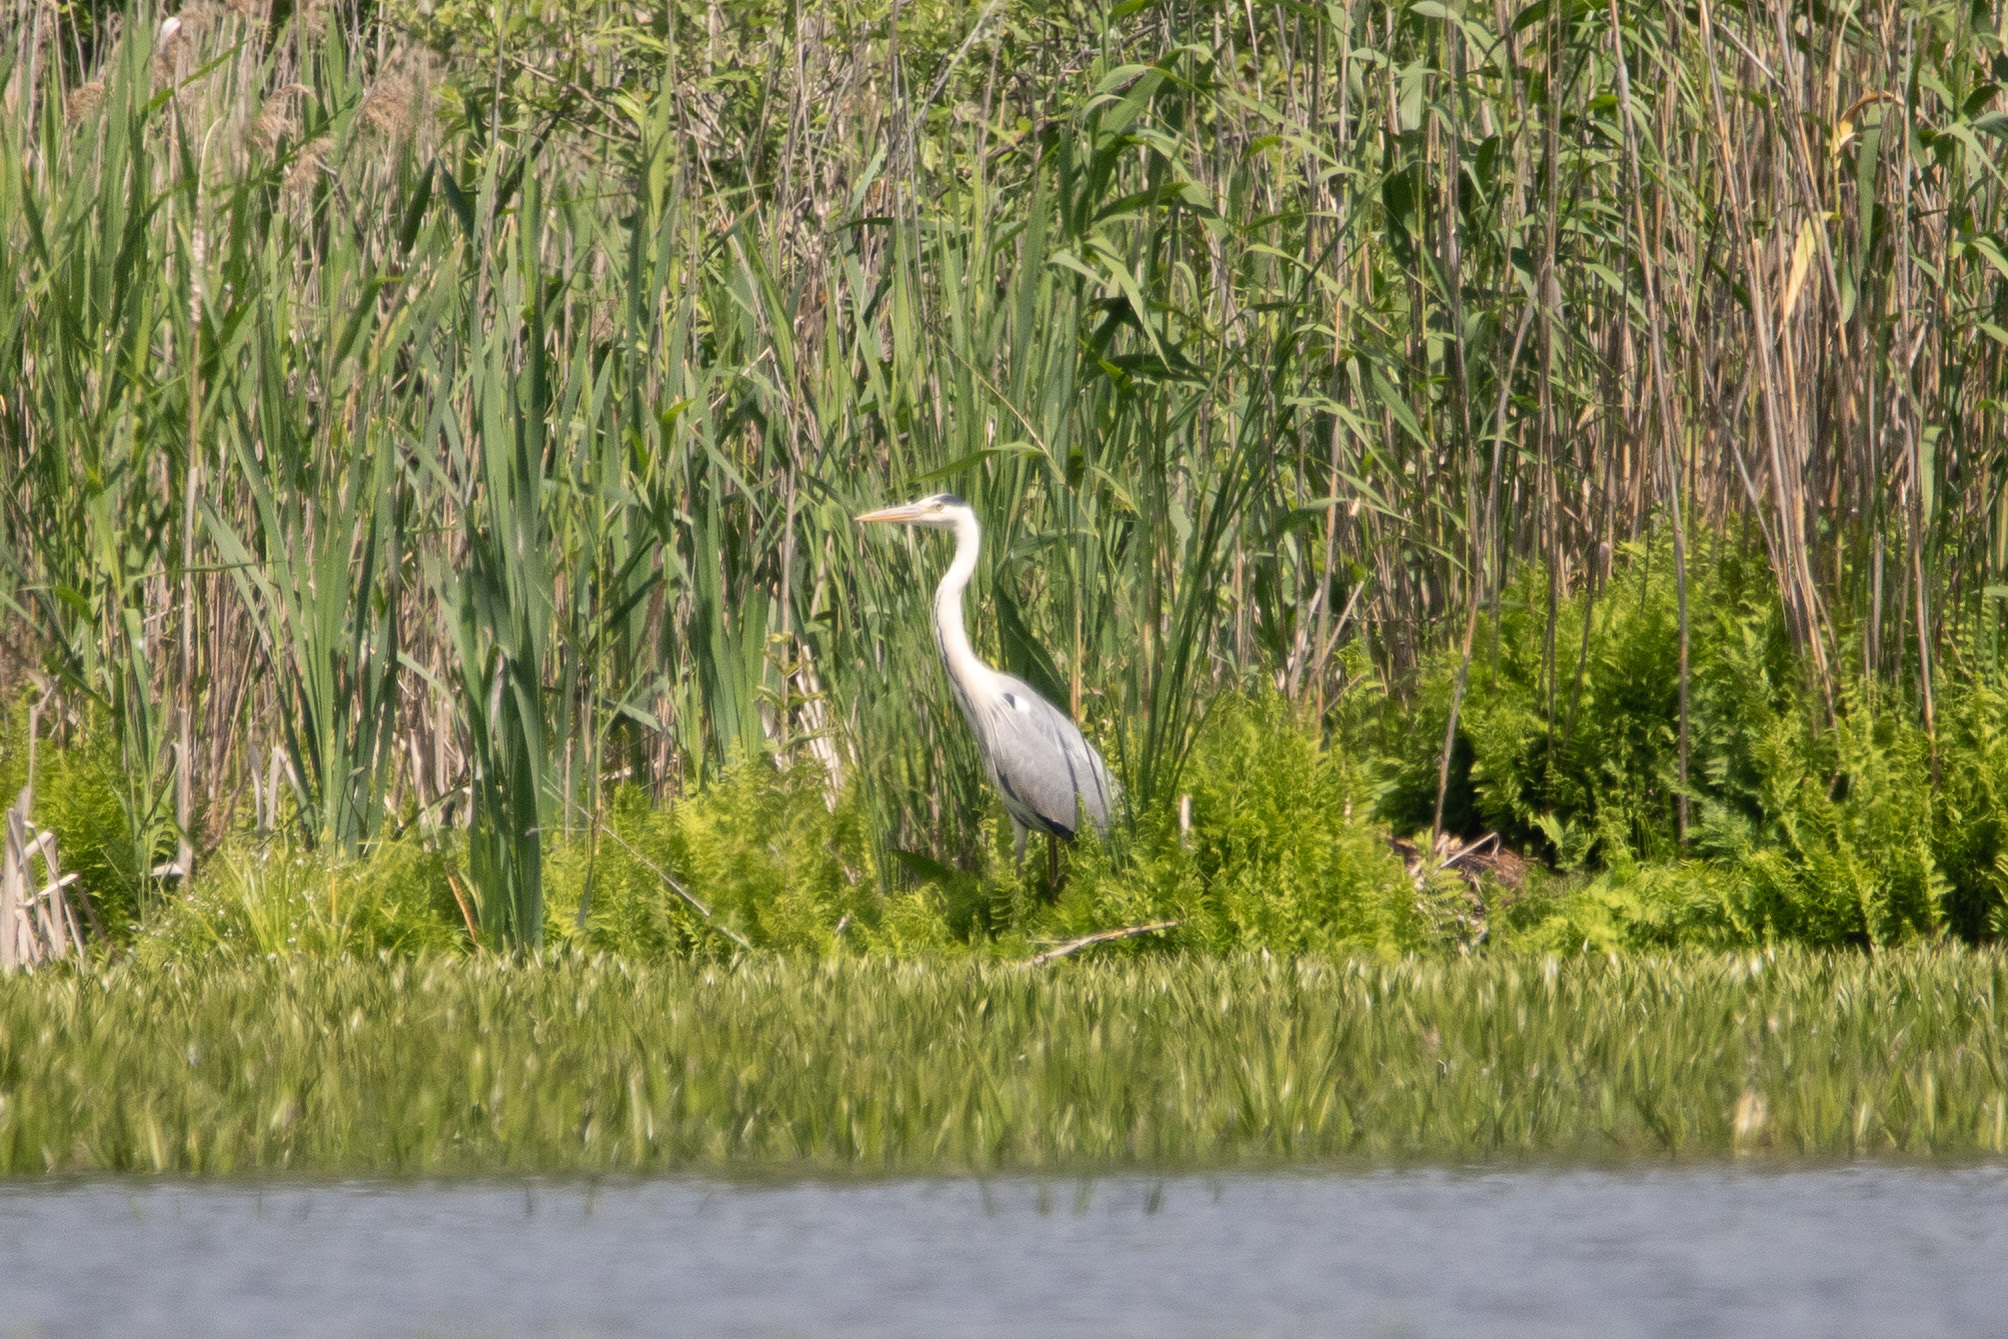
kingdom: Animalia
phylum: Chordata
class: Aves
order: Pelecaniformes
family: Ardeidae
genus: Ardea
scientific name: Ardea cinerea
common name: Grey heron
